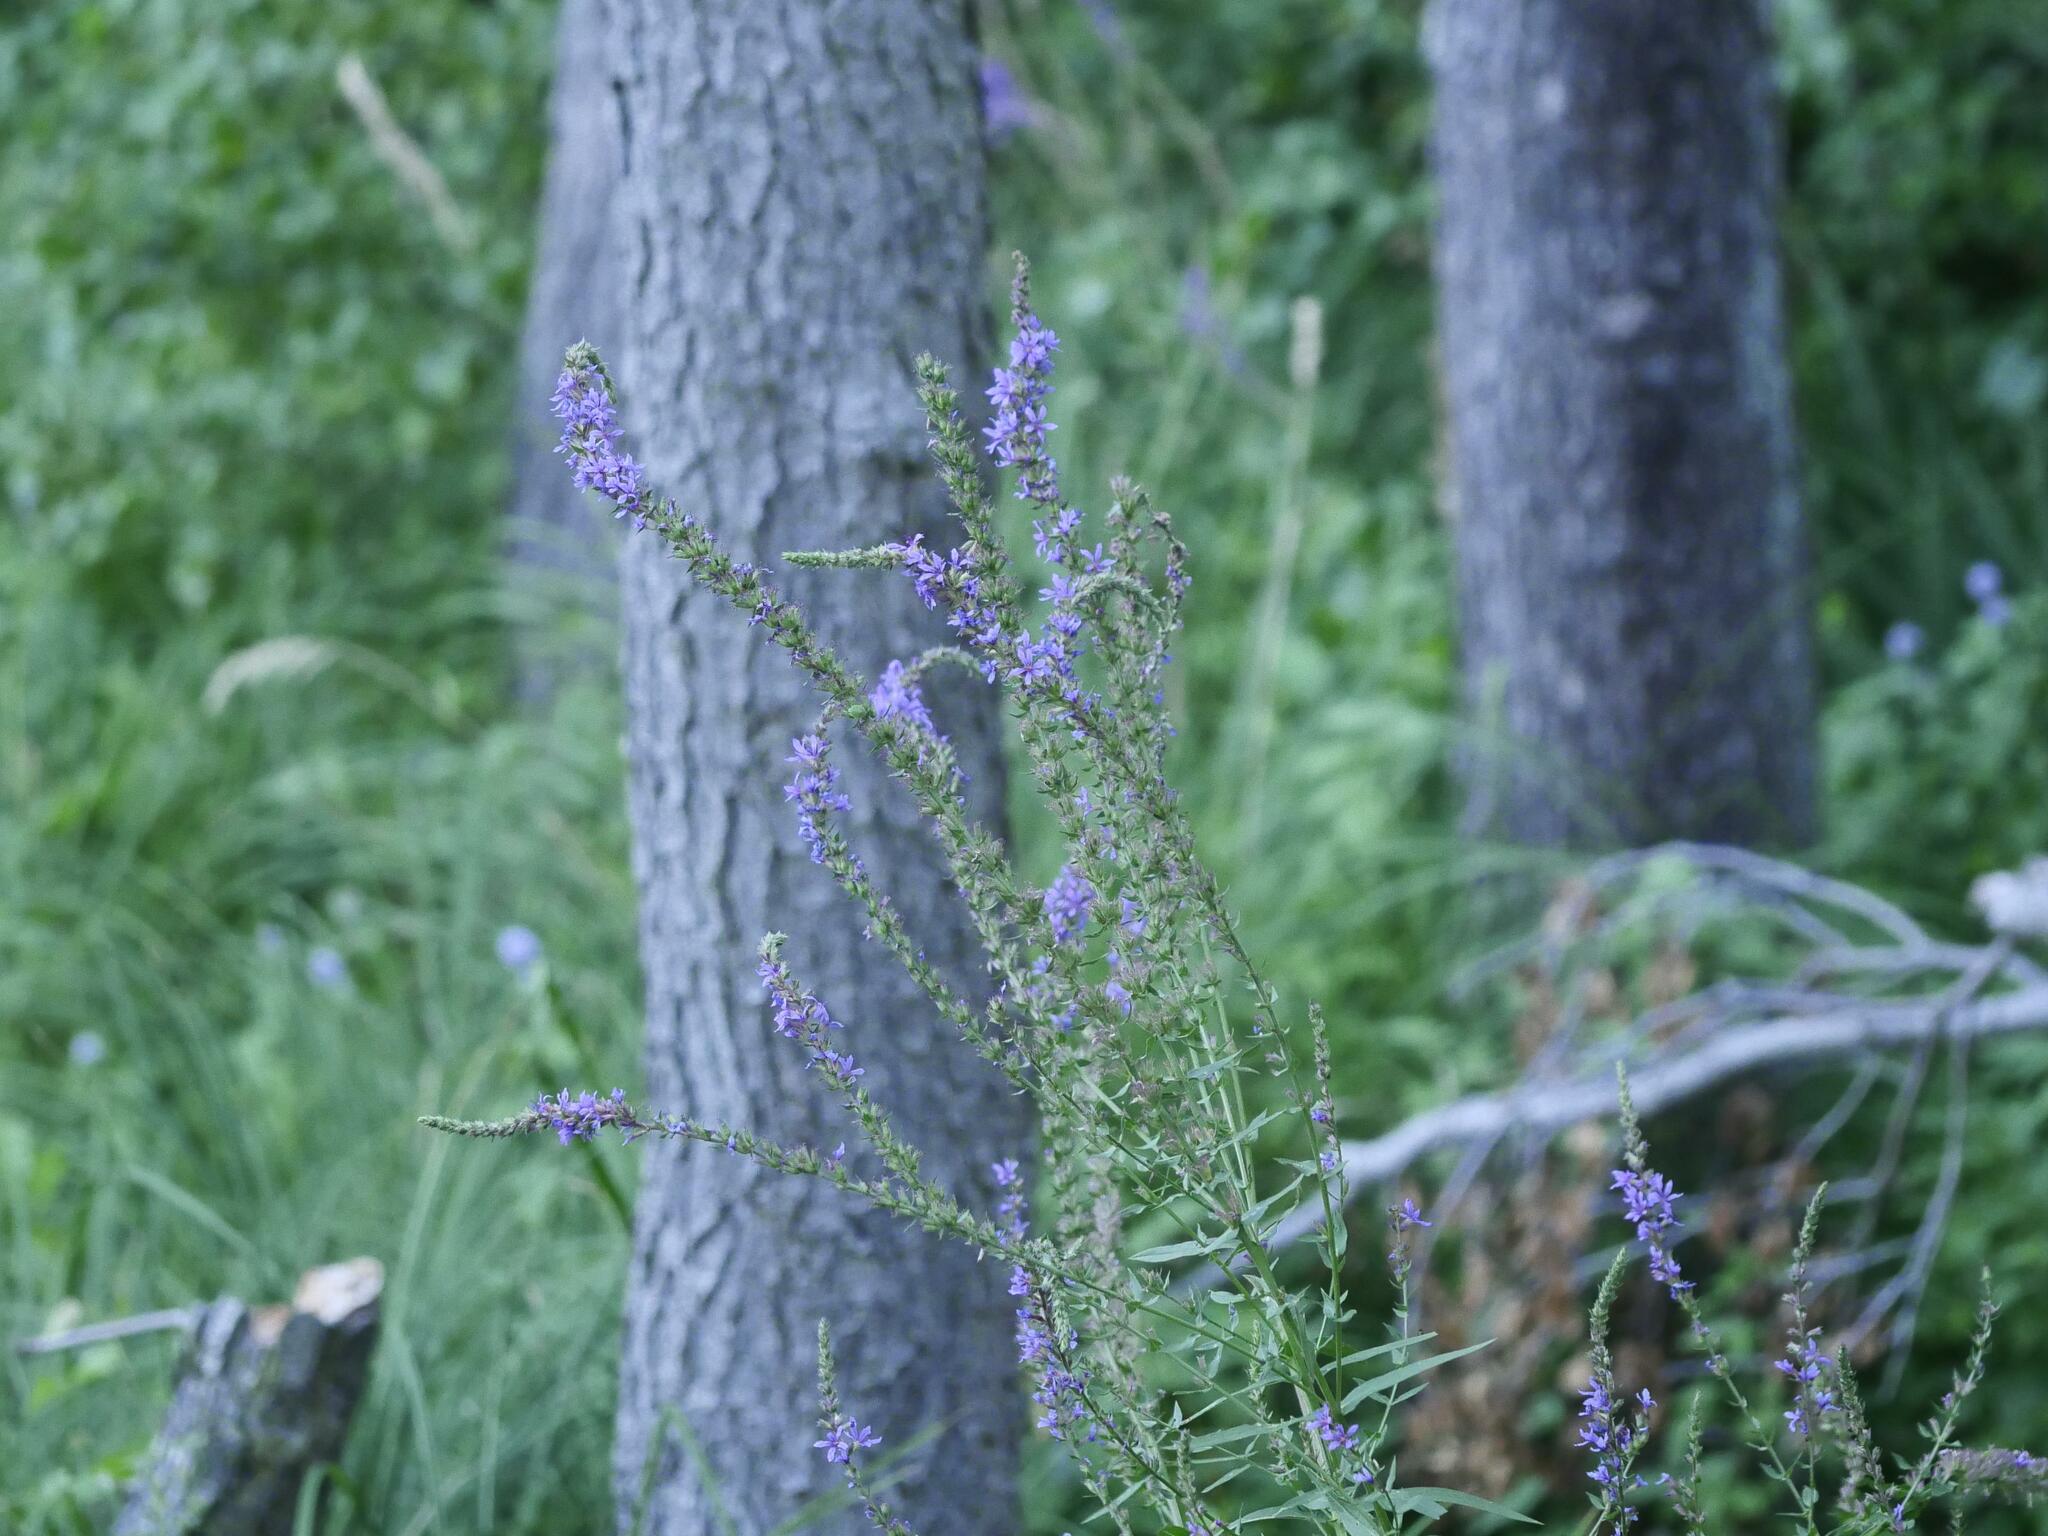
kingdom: Plantae
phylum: Tracheophyta
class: Magnoliopsida
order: Myrtales
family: Lythraceae
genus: Lythrum
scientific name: Lythrum salicaria
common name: Purple loosestrife
